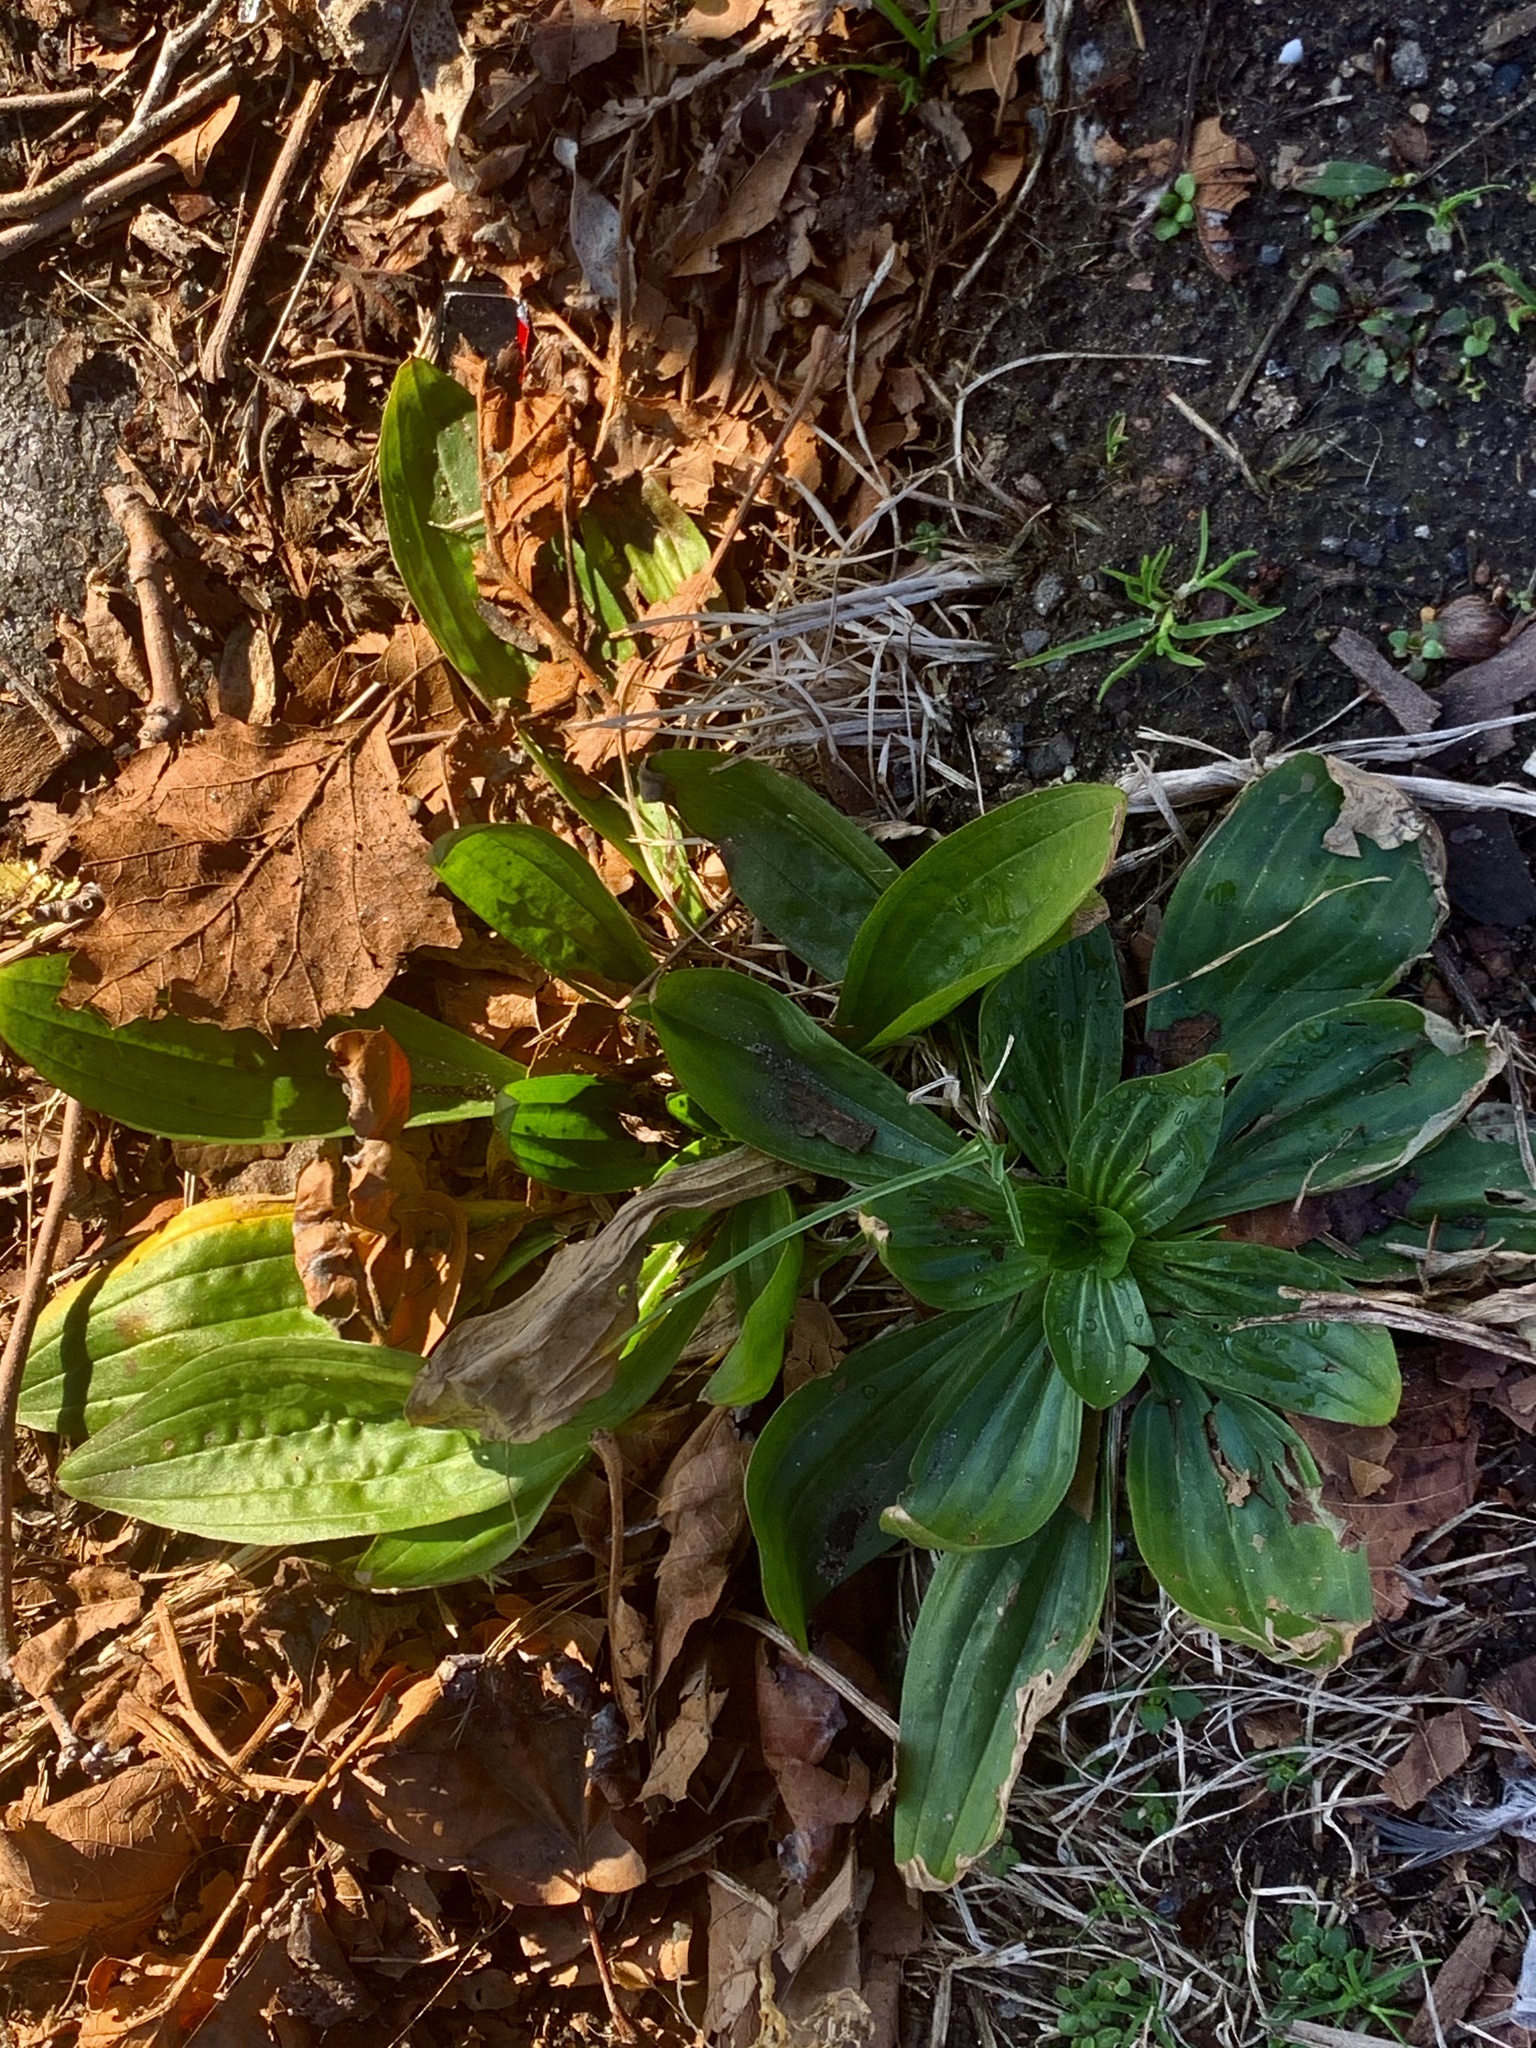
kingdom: Plantae
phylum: Tracheophyta
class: Magnoliopsida
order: Lamiales
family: Plantaginaceae
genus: Plantago
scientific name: Plantago lanceolata
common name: Ribwort plantain
